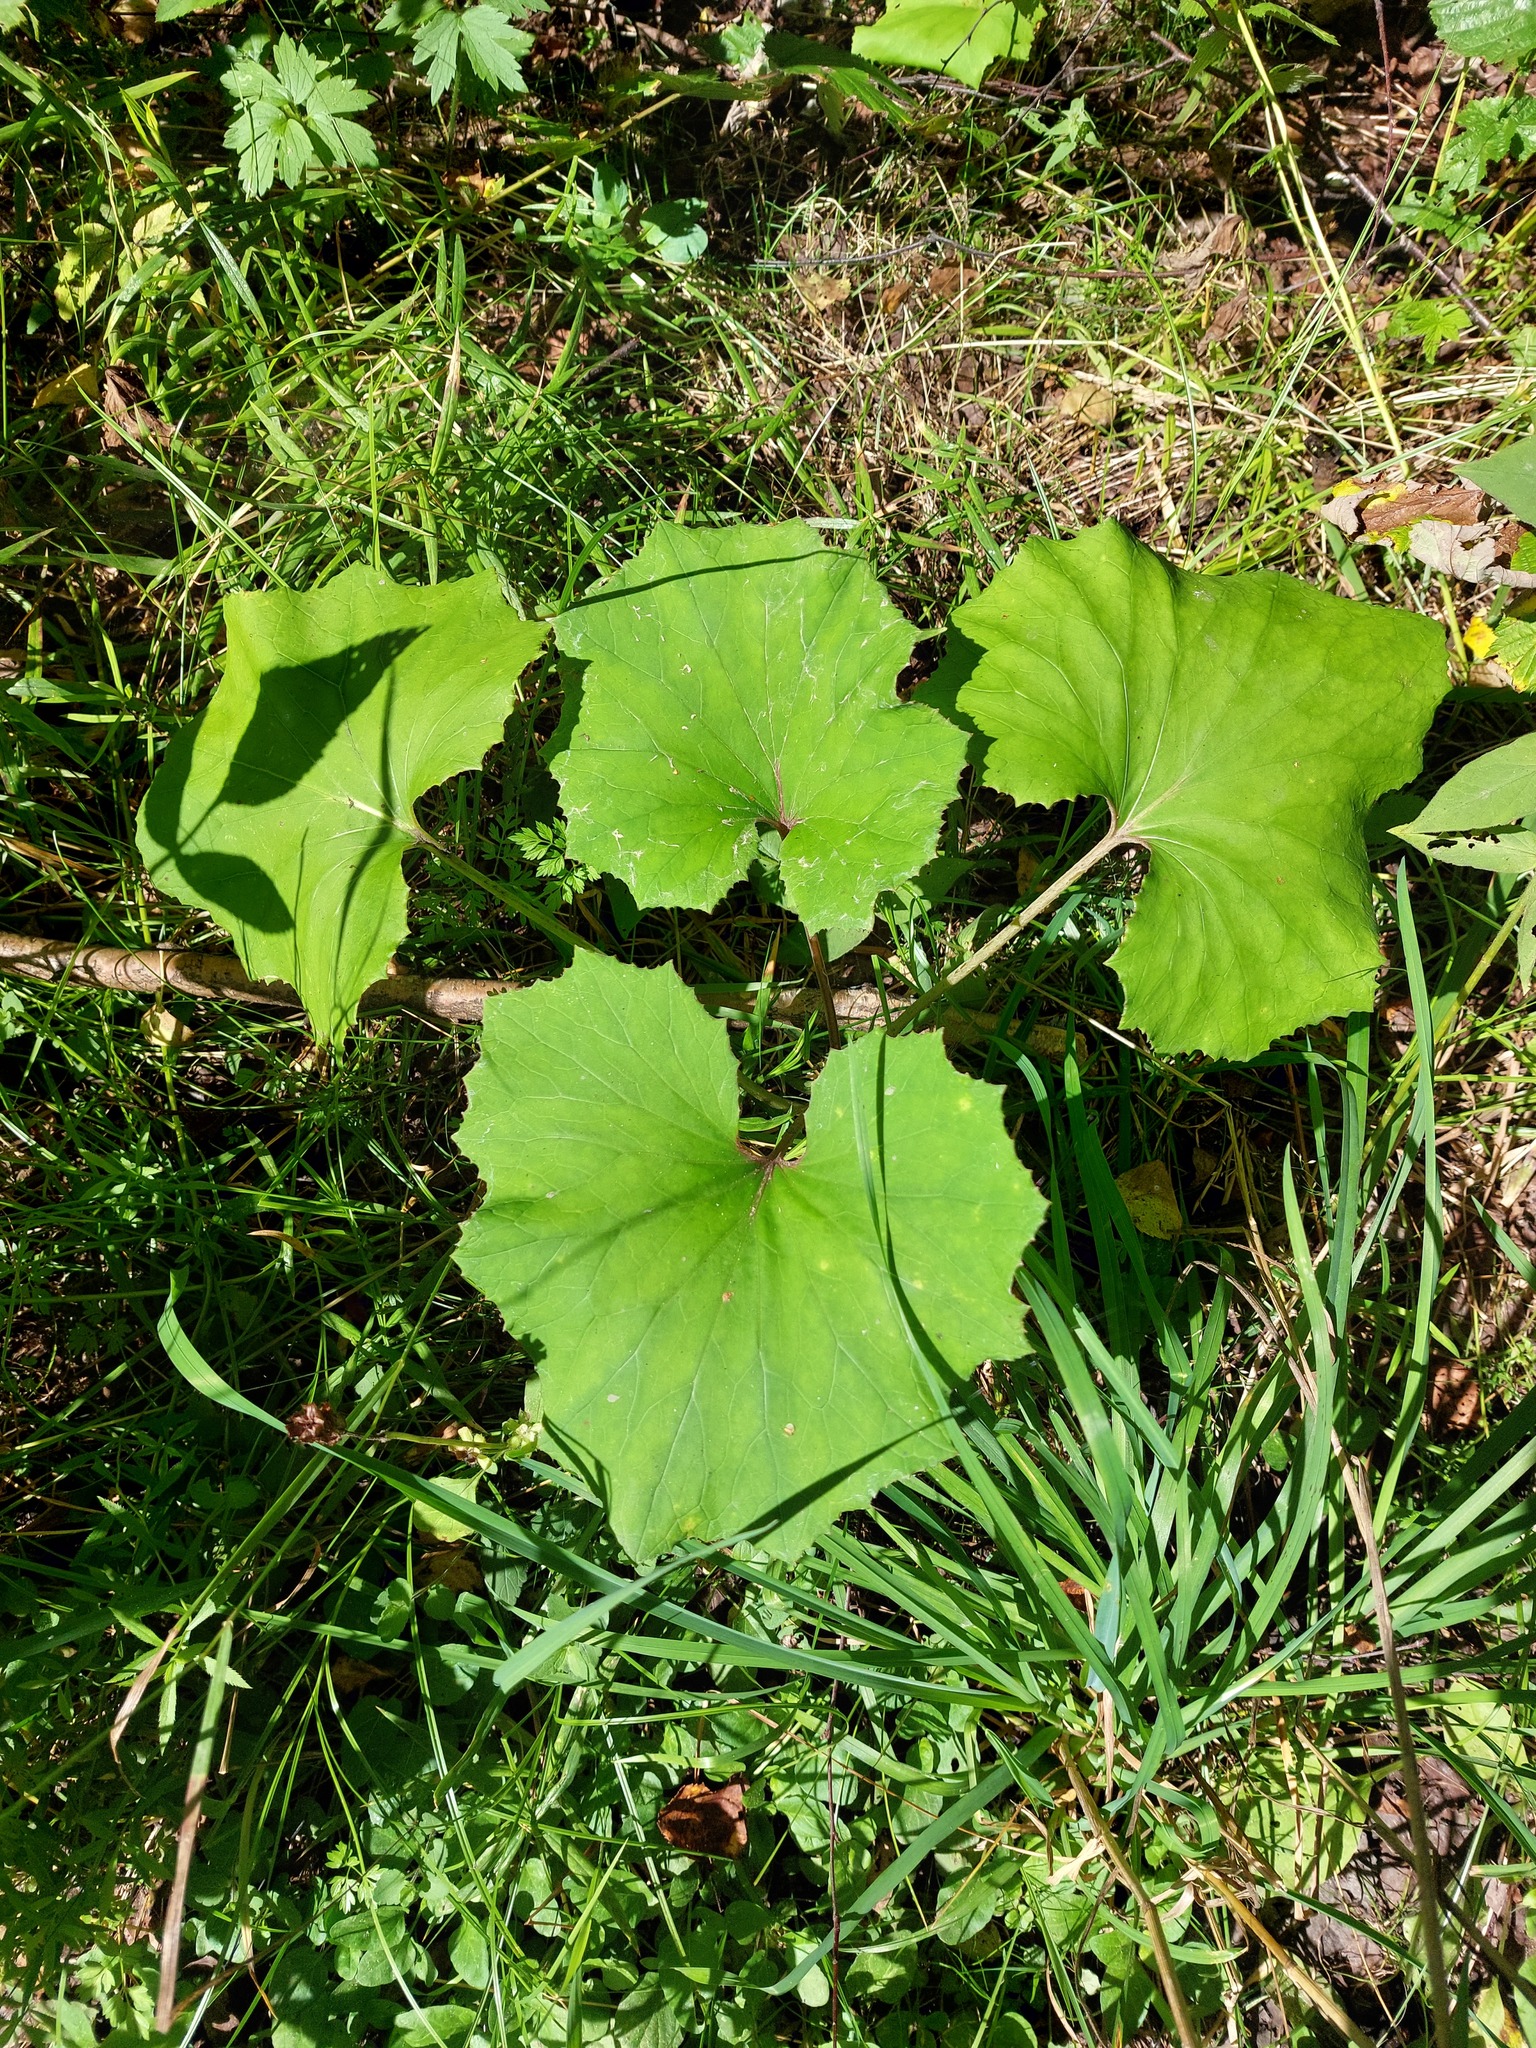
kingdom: Plantae
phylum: Tracheophyta
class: Magnoliopsida
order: Asterales
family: Asteraceae
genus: Tussilago
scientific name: Tussilago farfara
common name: Coltsfoot
